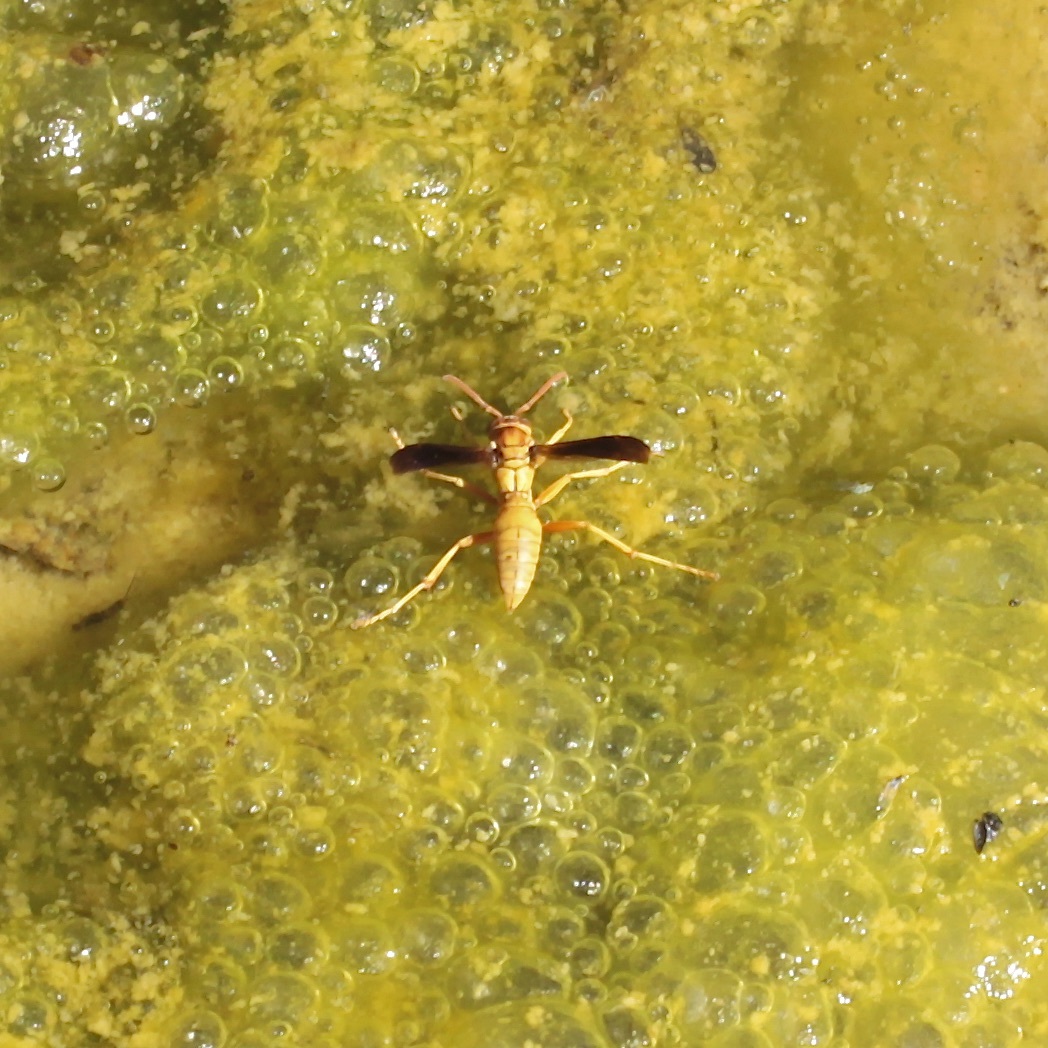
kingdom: Animalia
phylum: Arthropoda
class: Insecta
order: Hymenoptera
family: Eumenidae
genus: Polistes
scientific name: Polistes flavus
